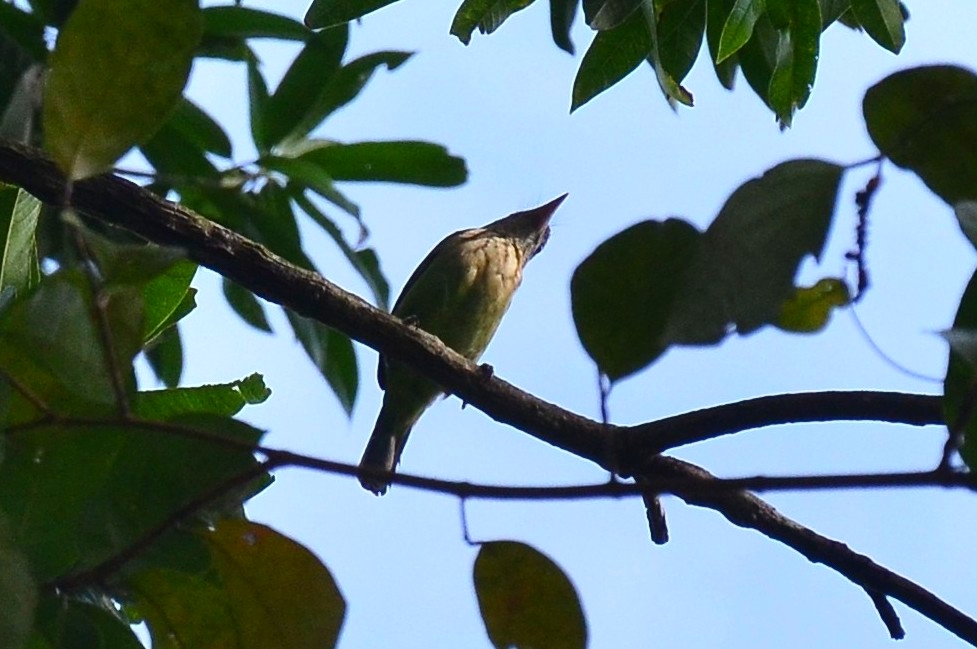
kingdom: Animalia
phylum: Chordata
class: Aves
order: Piciformes
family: Megalaimidae
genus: Psilopogon
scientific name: Psilopogon viridis
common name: White-cheeked barbet
